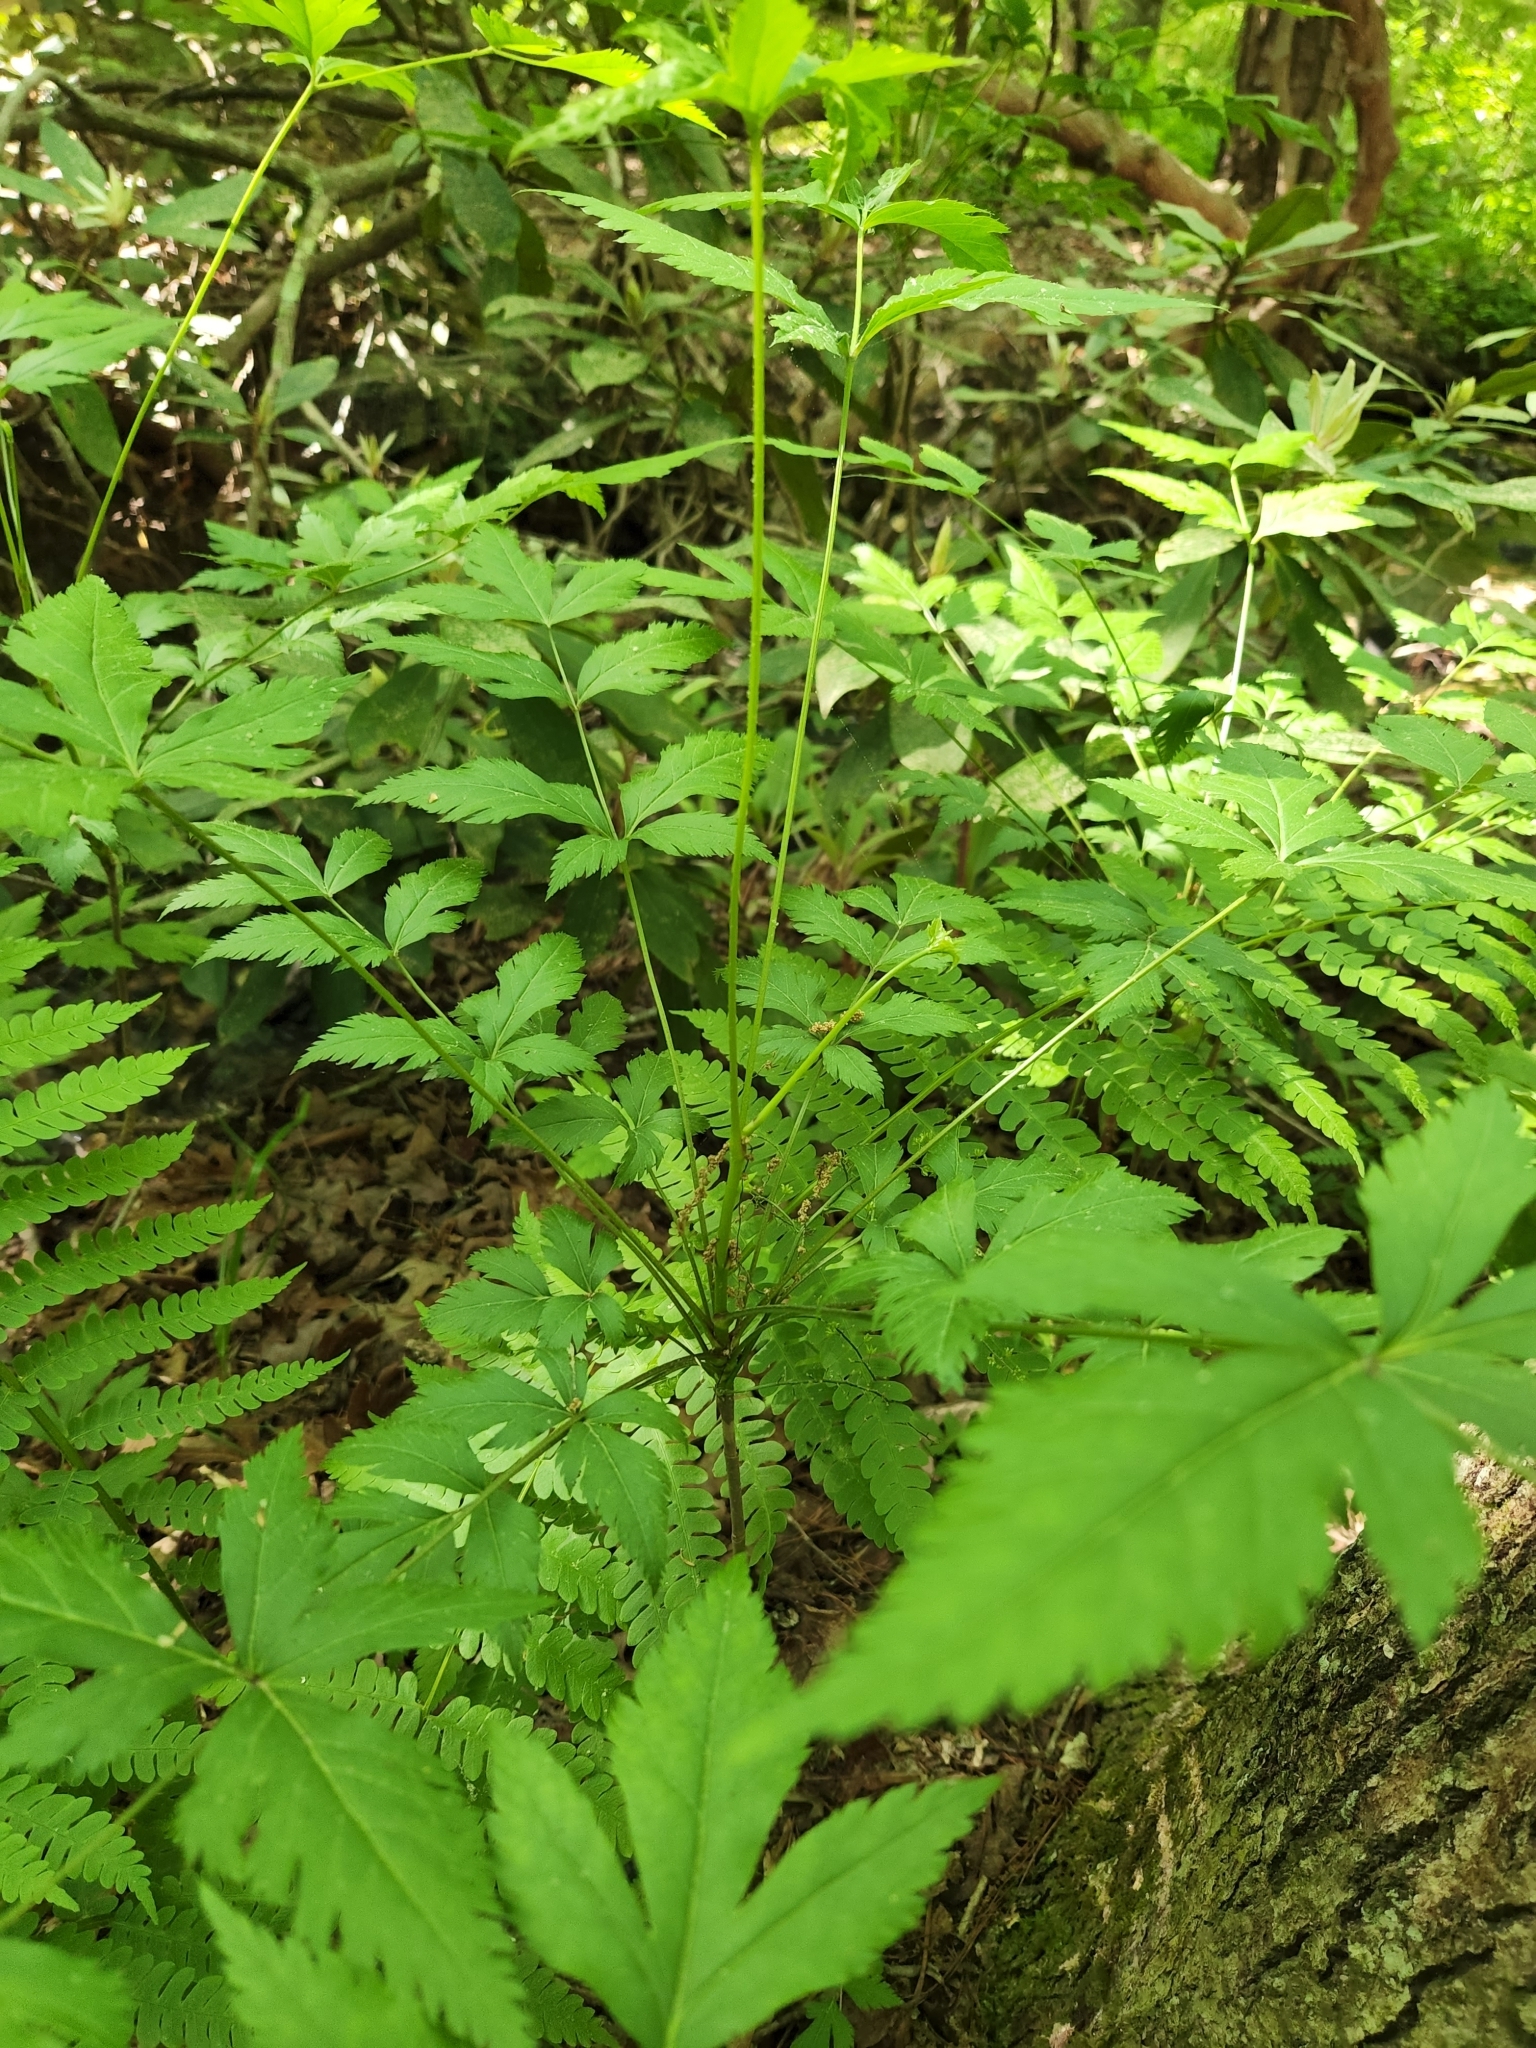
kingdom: Plantae
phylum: Tracheophyta
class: Magnoliopsida
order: Ranunculales
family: Ranunculaceae
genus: Xanthorhiza
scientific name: Xanthorhiza simplicissima
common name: Yellowroot
